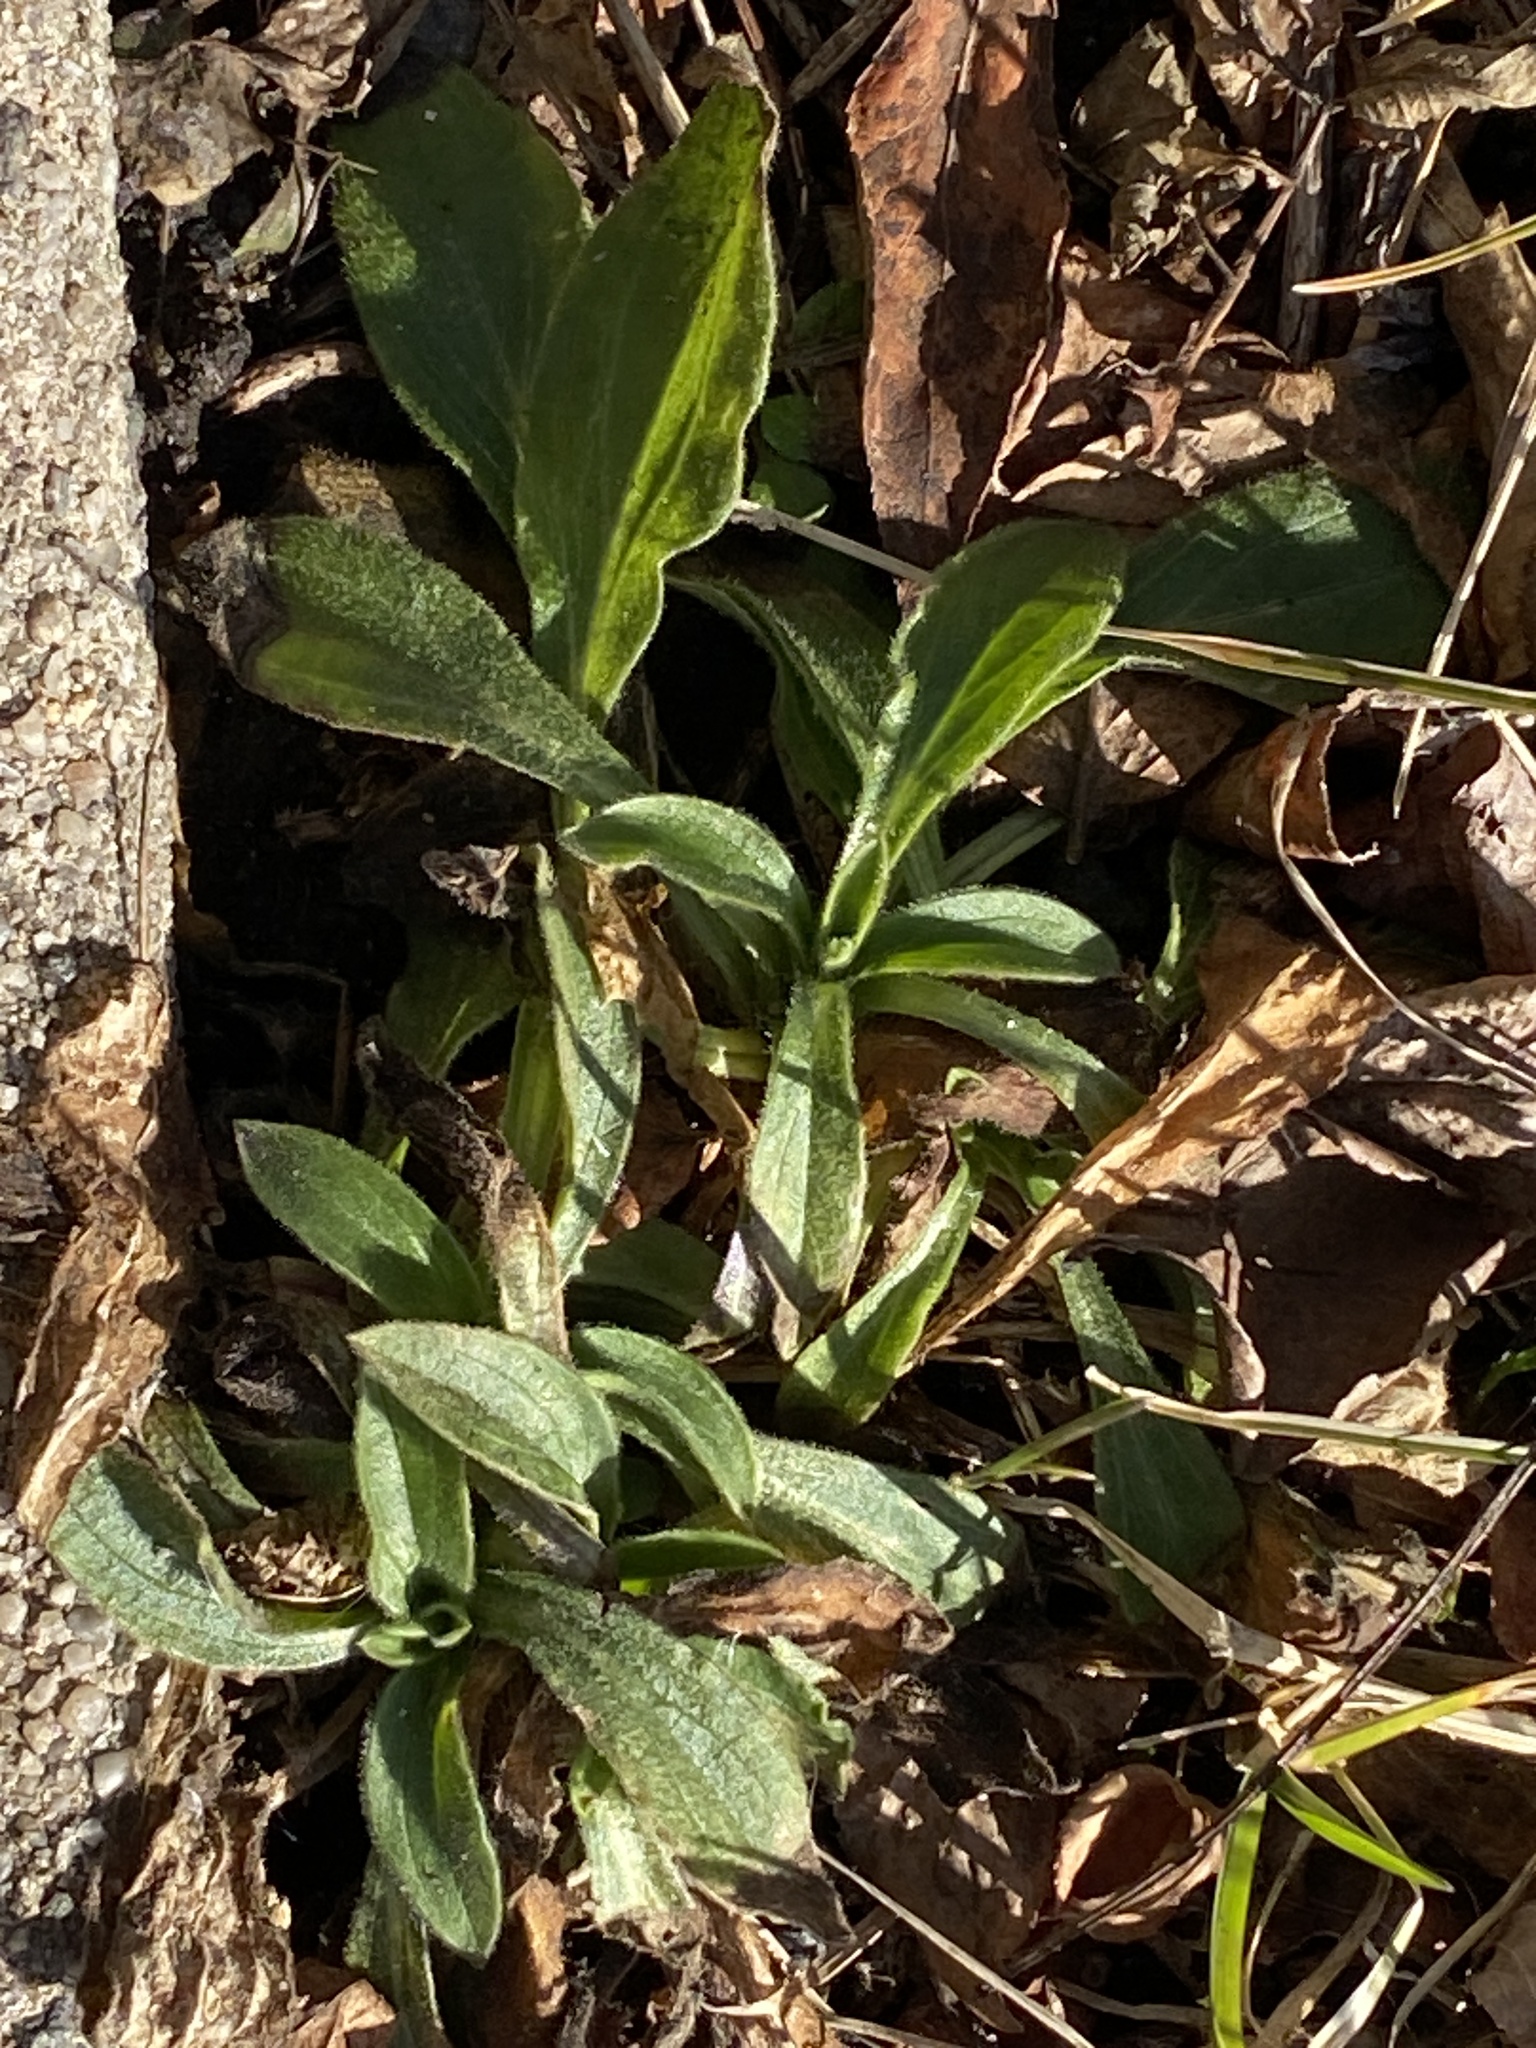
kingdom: Plantae
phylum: Tracheophyta
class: Magnoliopsida
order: Caryophyllales
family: Caryophyllaceae
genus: Silene
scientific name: Silene latifolia
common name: White campion
